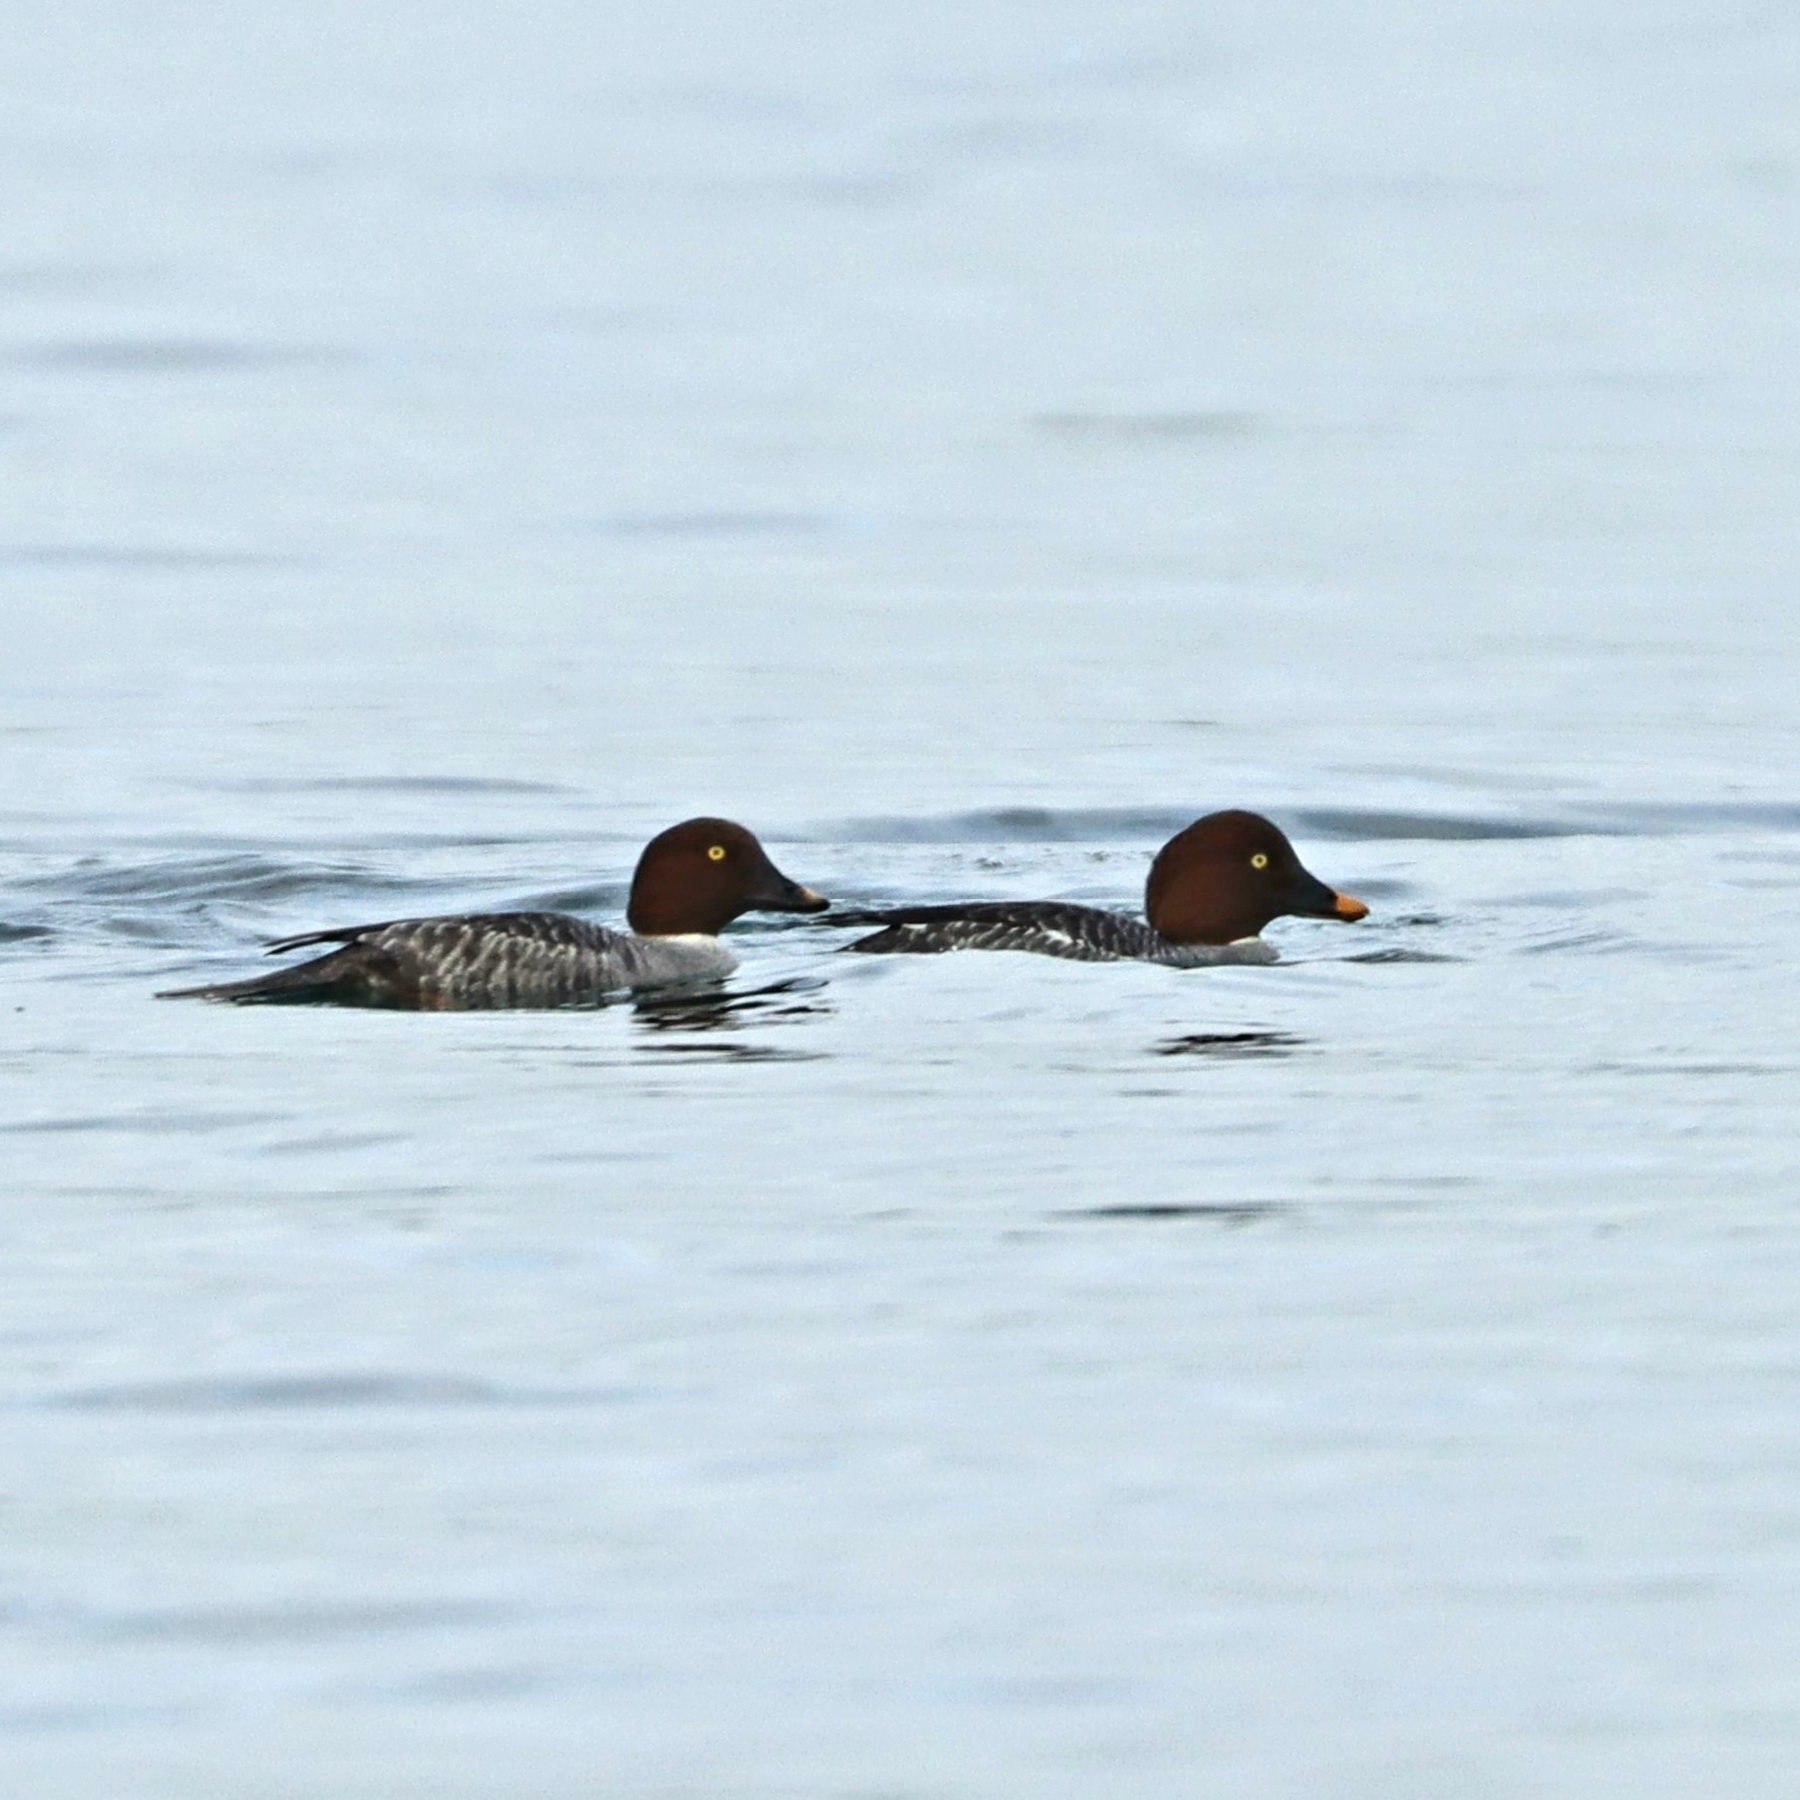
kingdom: Animalia
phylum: Chordata
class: Aves
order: Anseriformes
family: Anatidae
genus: Bucephala
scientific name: Bucephala clangula
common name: Common goldeneye
